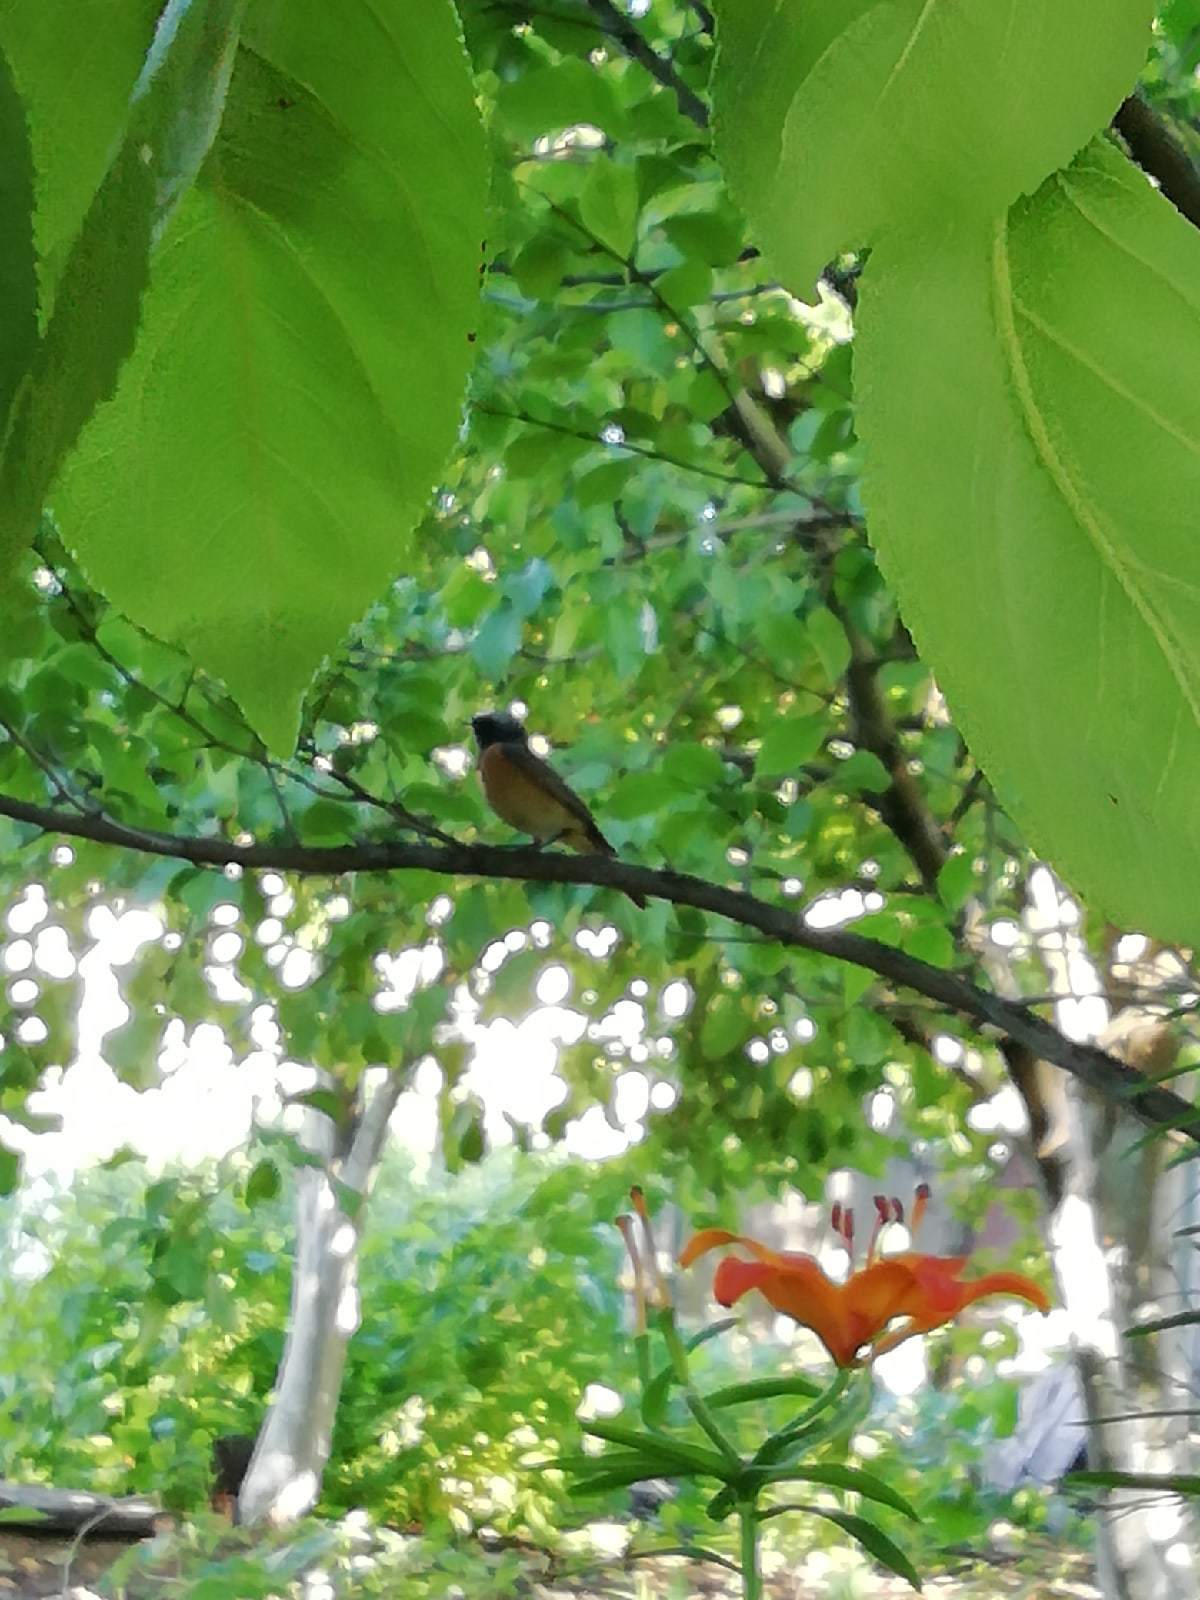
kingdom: Animalia
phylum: Chordata
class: Aves
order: Passeriformes
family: Muscicapidae
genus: Phoenicurus
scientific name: Phoenicurus phoenicurus
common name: Common redstart
